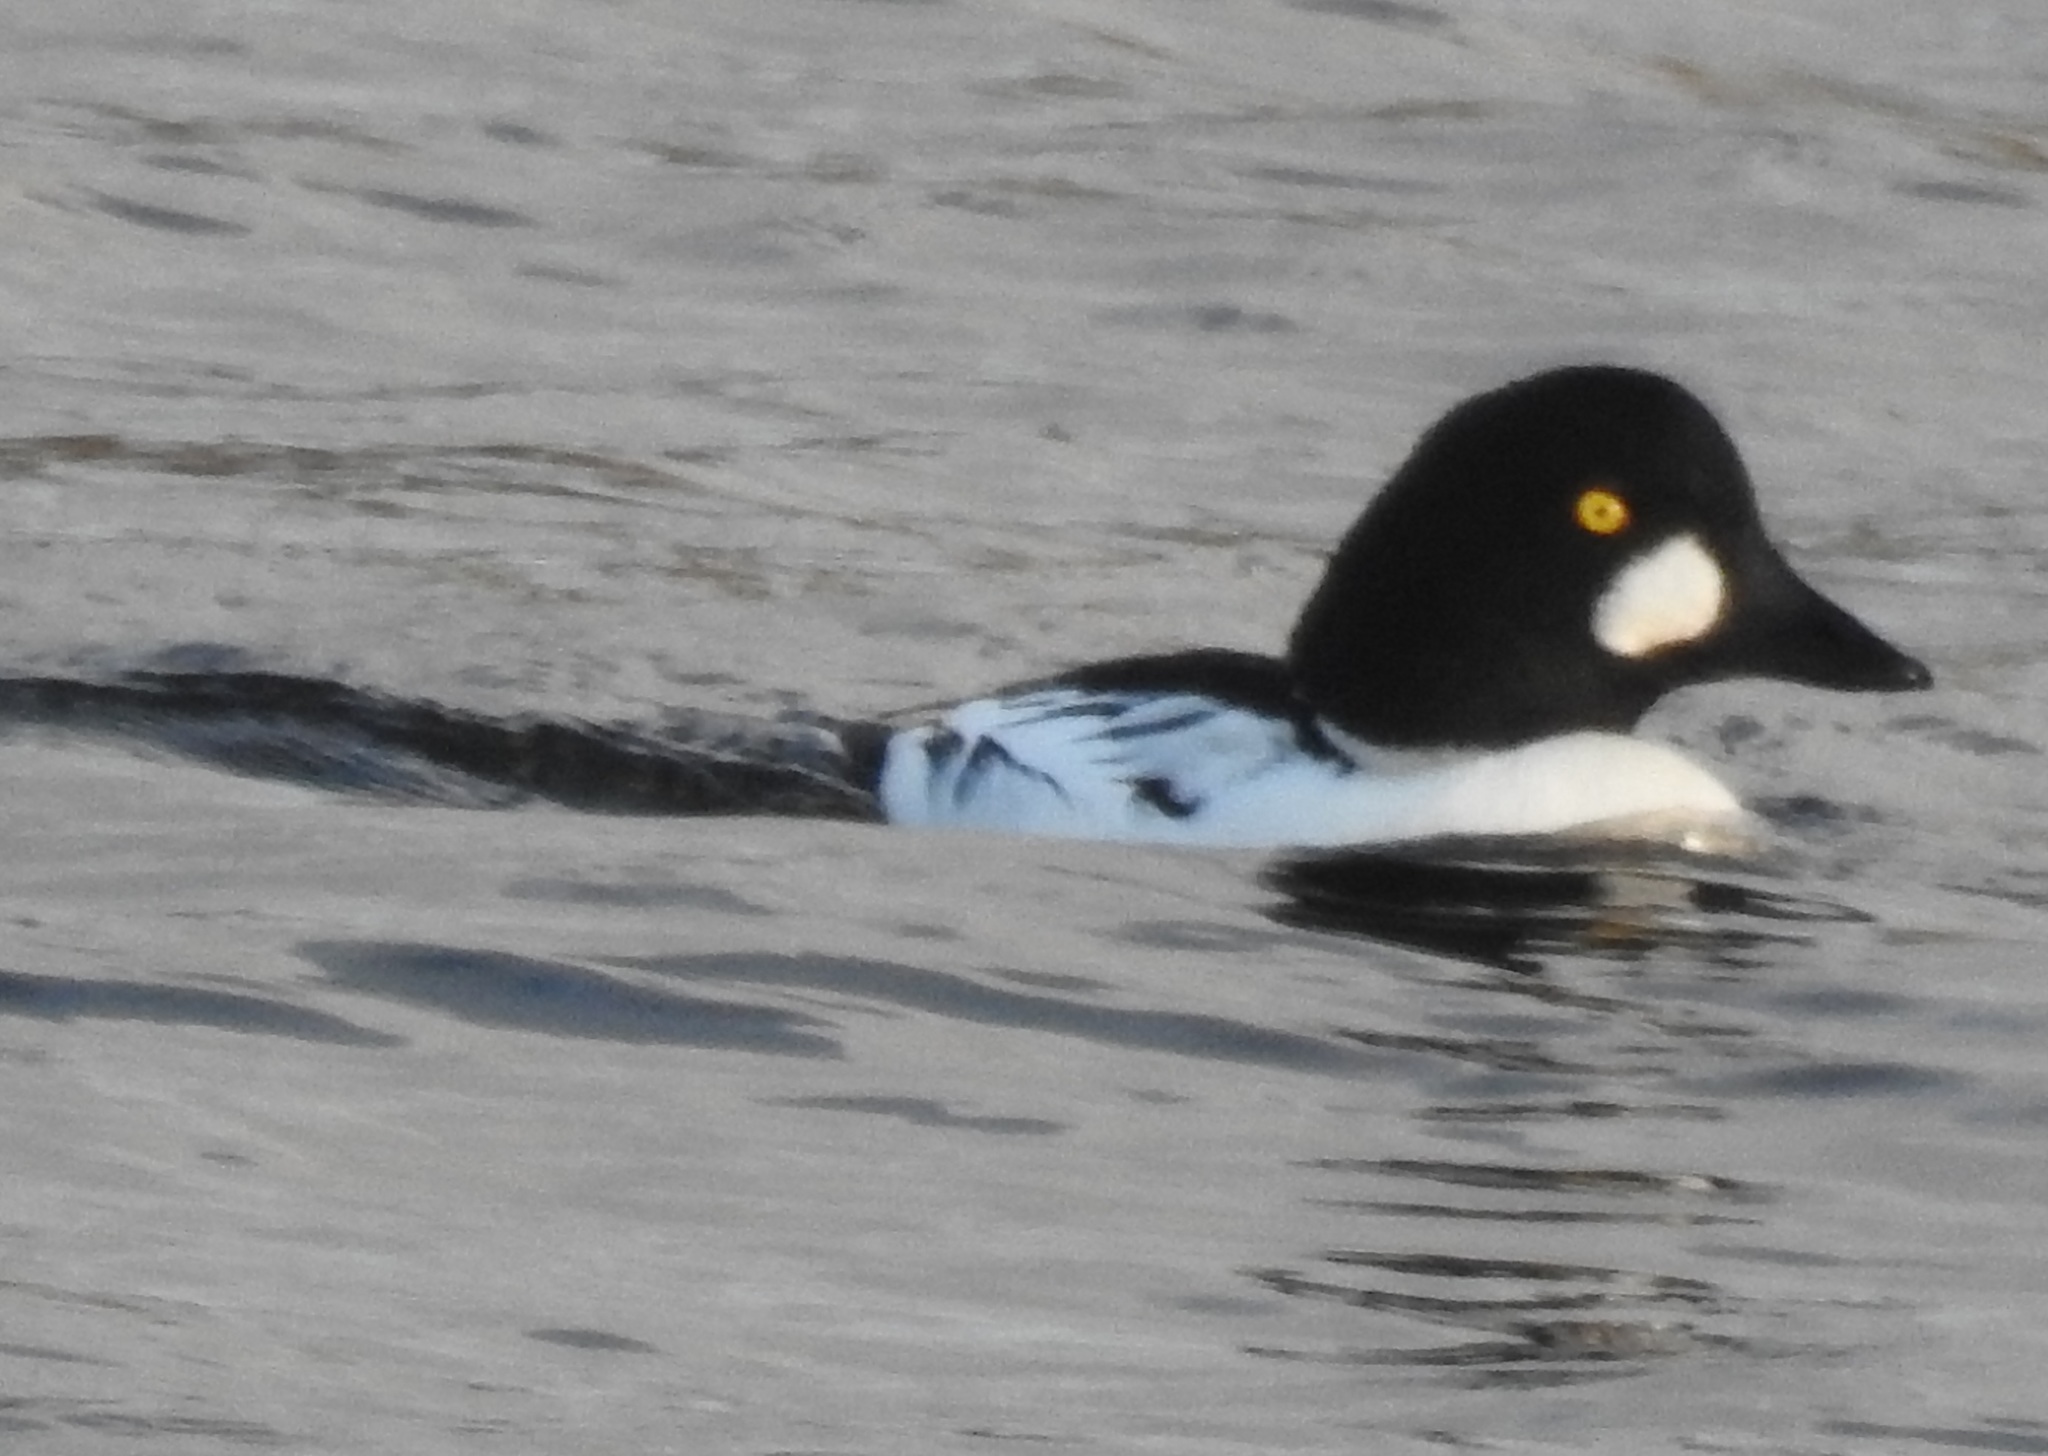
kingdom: Animalia
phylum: Chordata
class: Aves
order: Anseriformes
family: Anatidae
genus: Bucephala
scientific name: Bucephala clangula
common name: Common goldeneye
